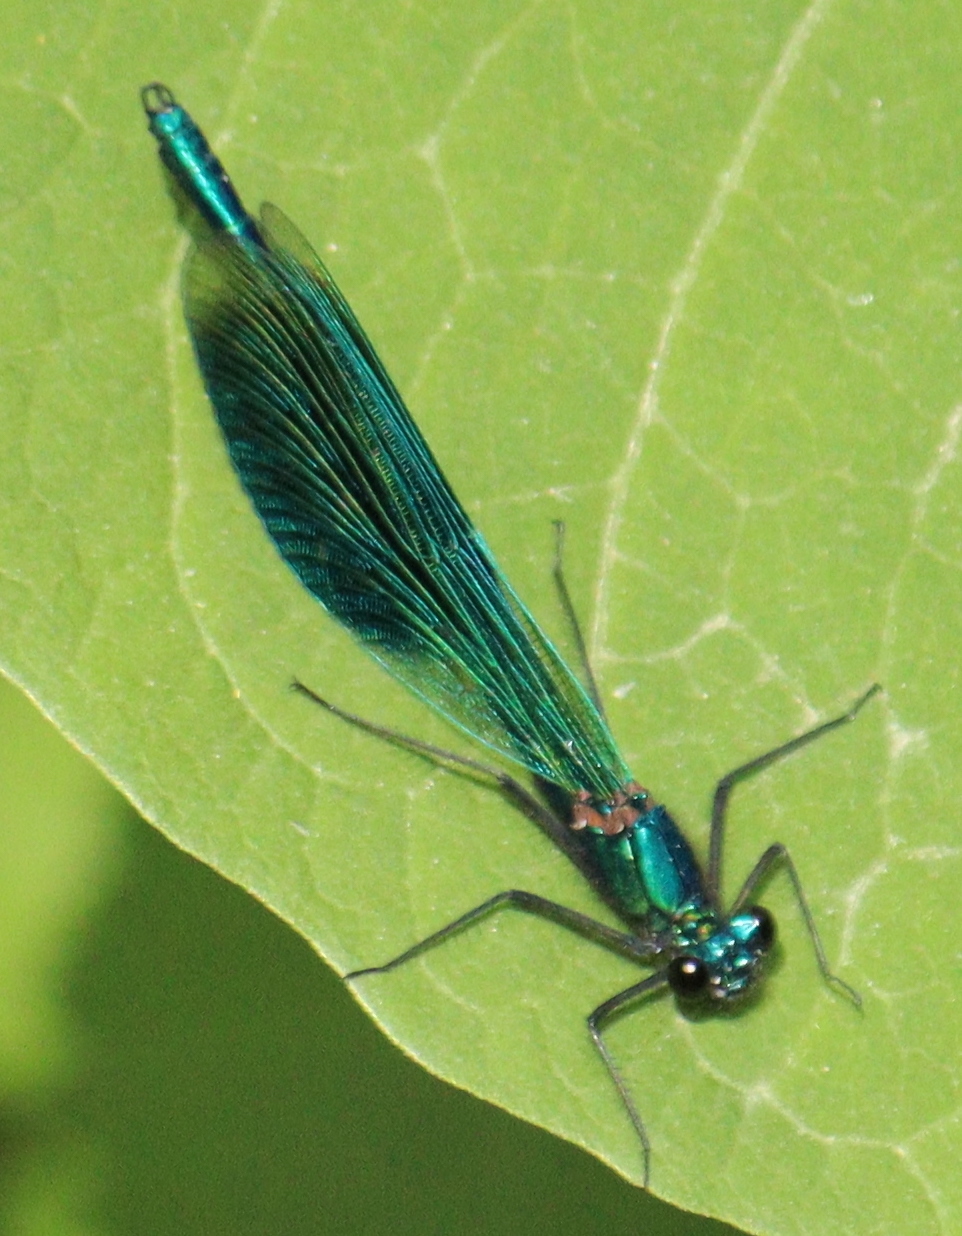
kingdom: Animalia
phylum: Arthropoda
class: Insecta
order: Odonata
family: Calopterygidae
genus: Calopteryx
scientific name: Calopteryx splendens
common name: Banded demoiselle
